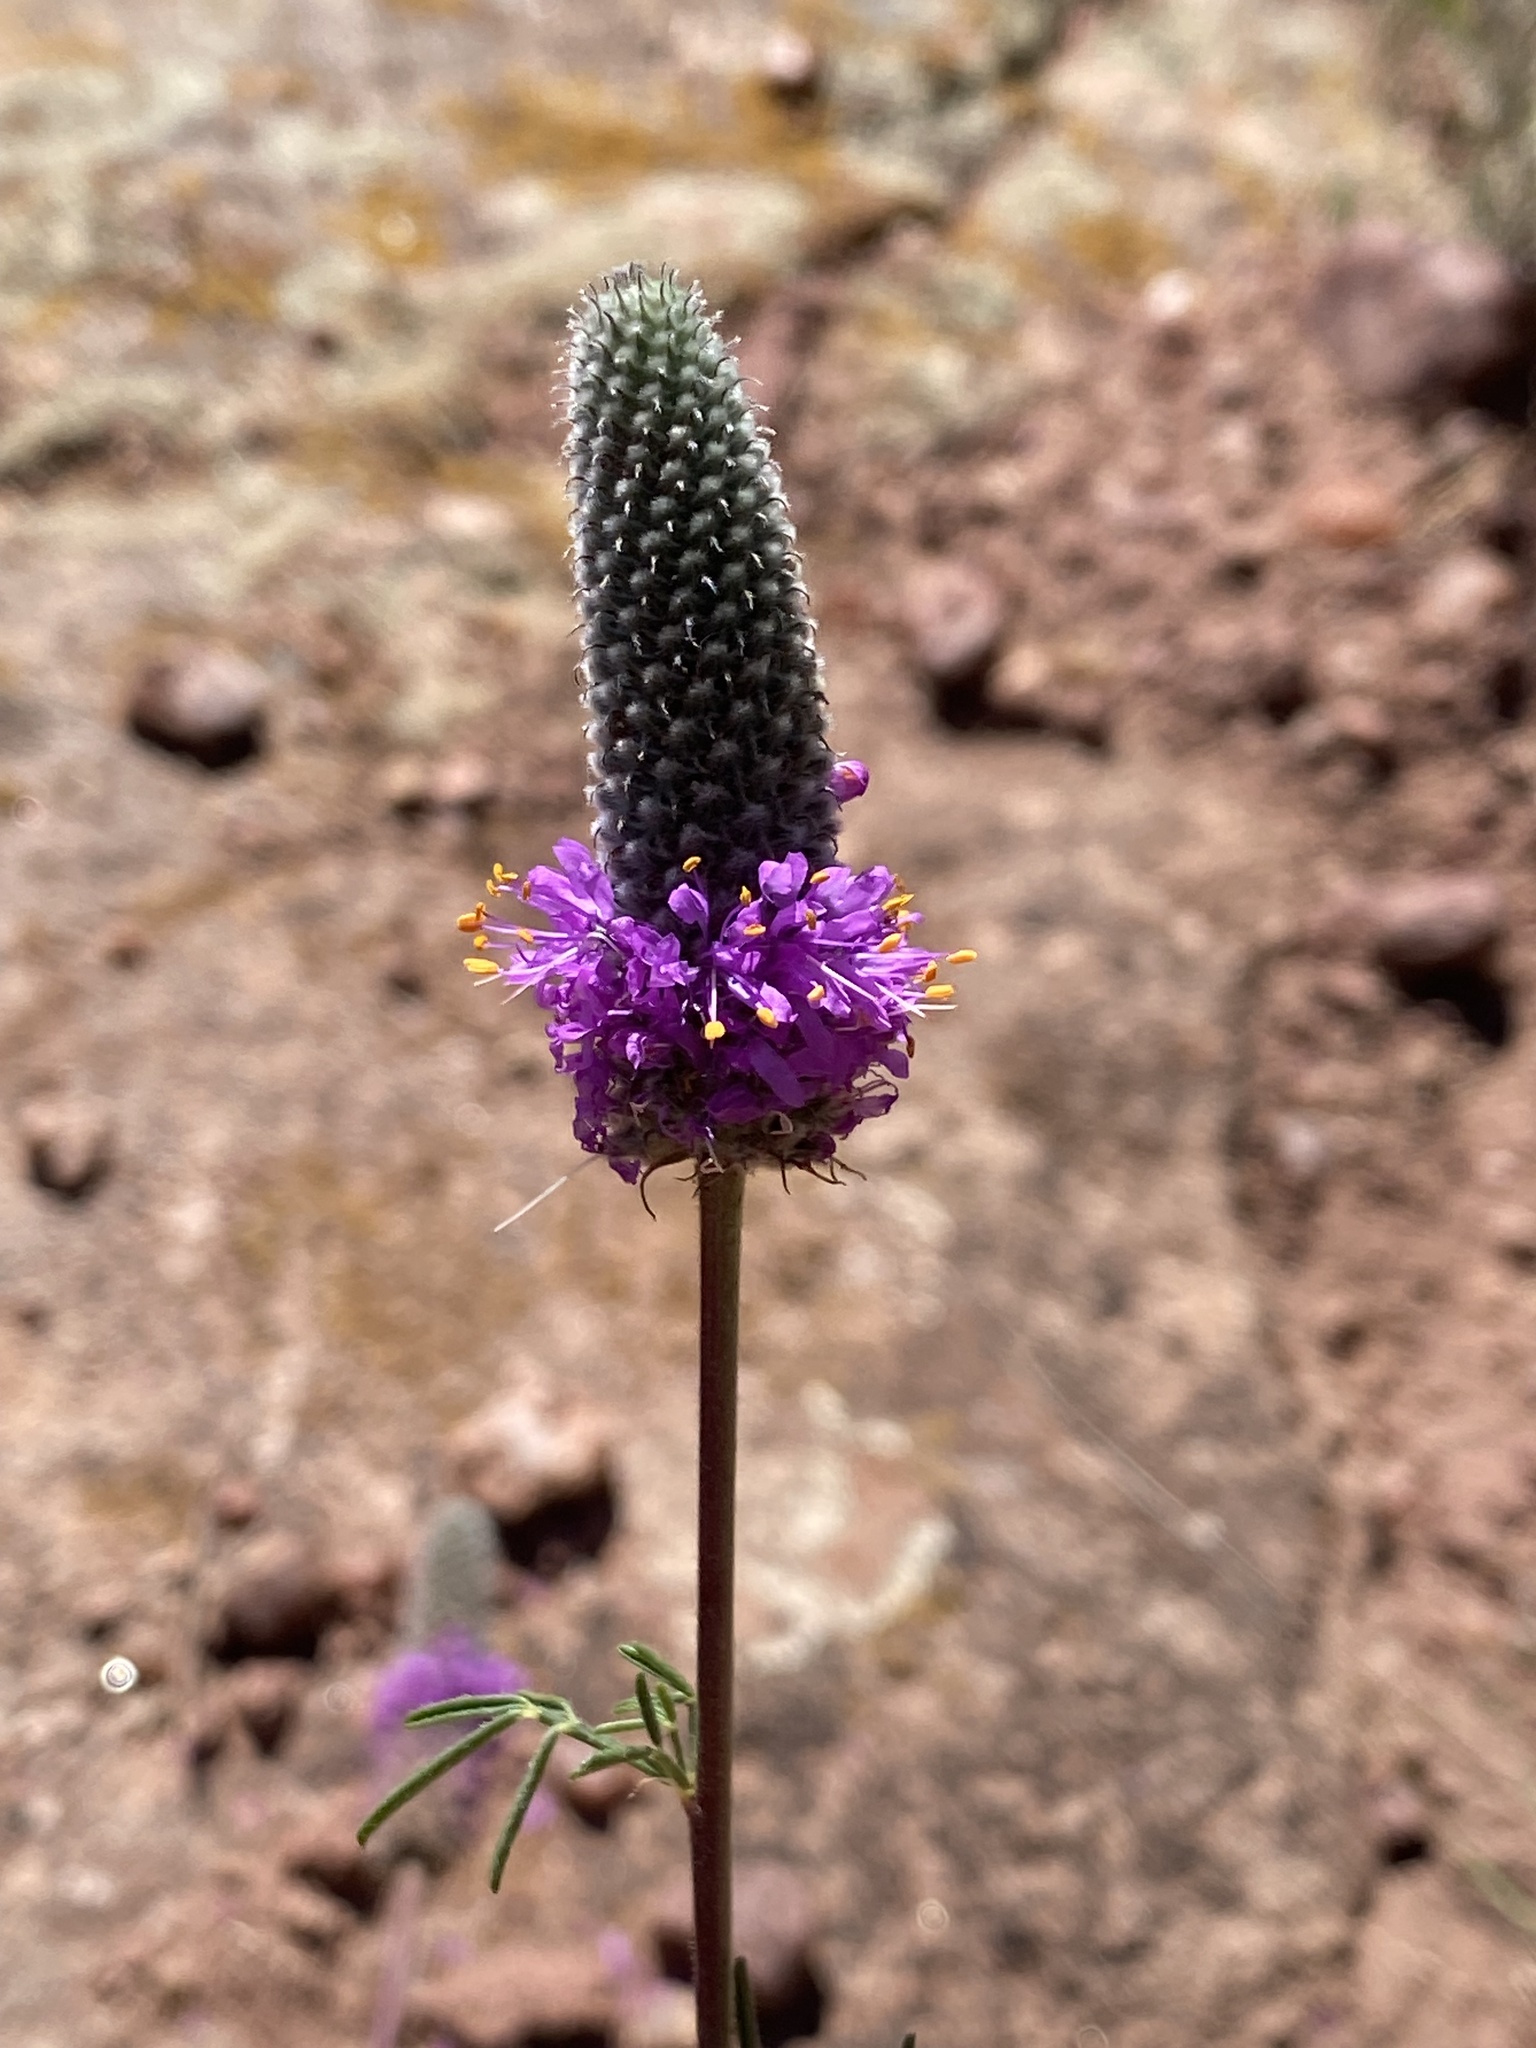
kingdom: Plantae
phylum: Tracheophyta
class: Magnoliopsida
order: Fabales
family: Fabaceae
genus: Dalea
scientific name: Dalea purpurea
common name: Purple prairie-clover
